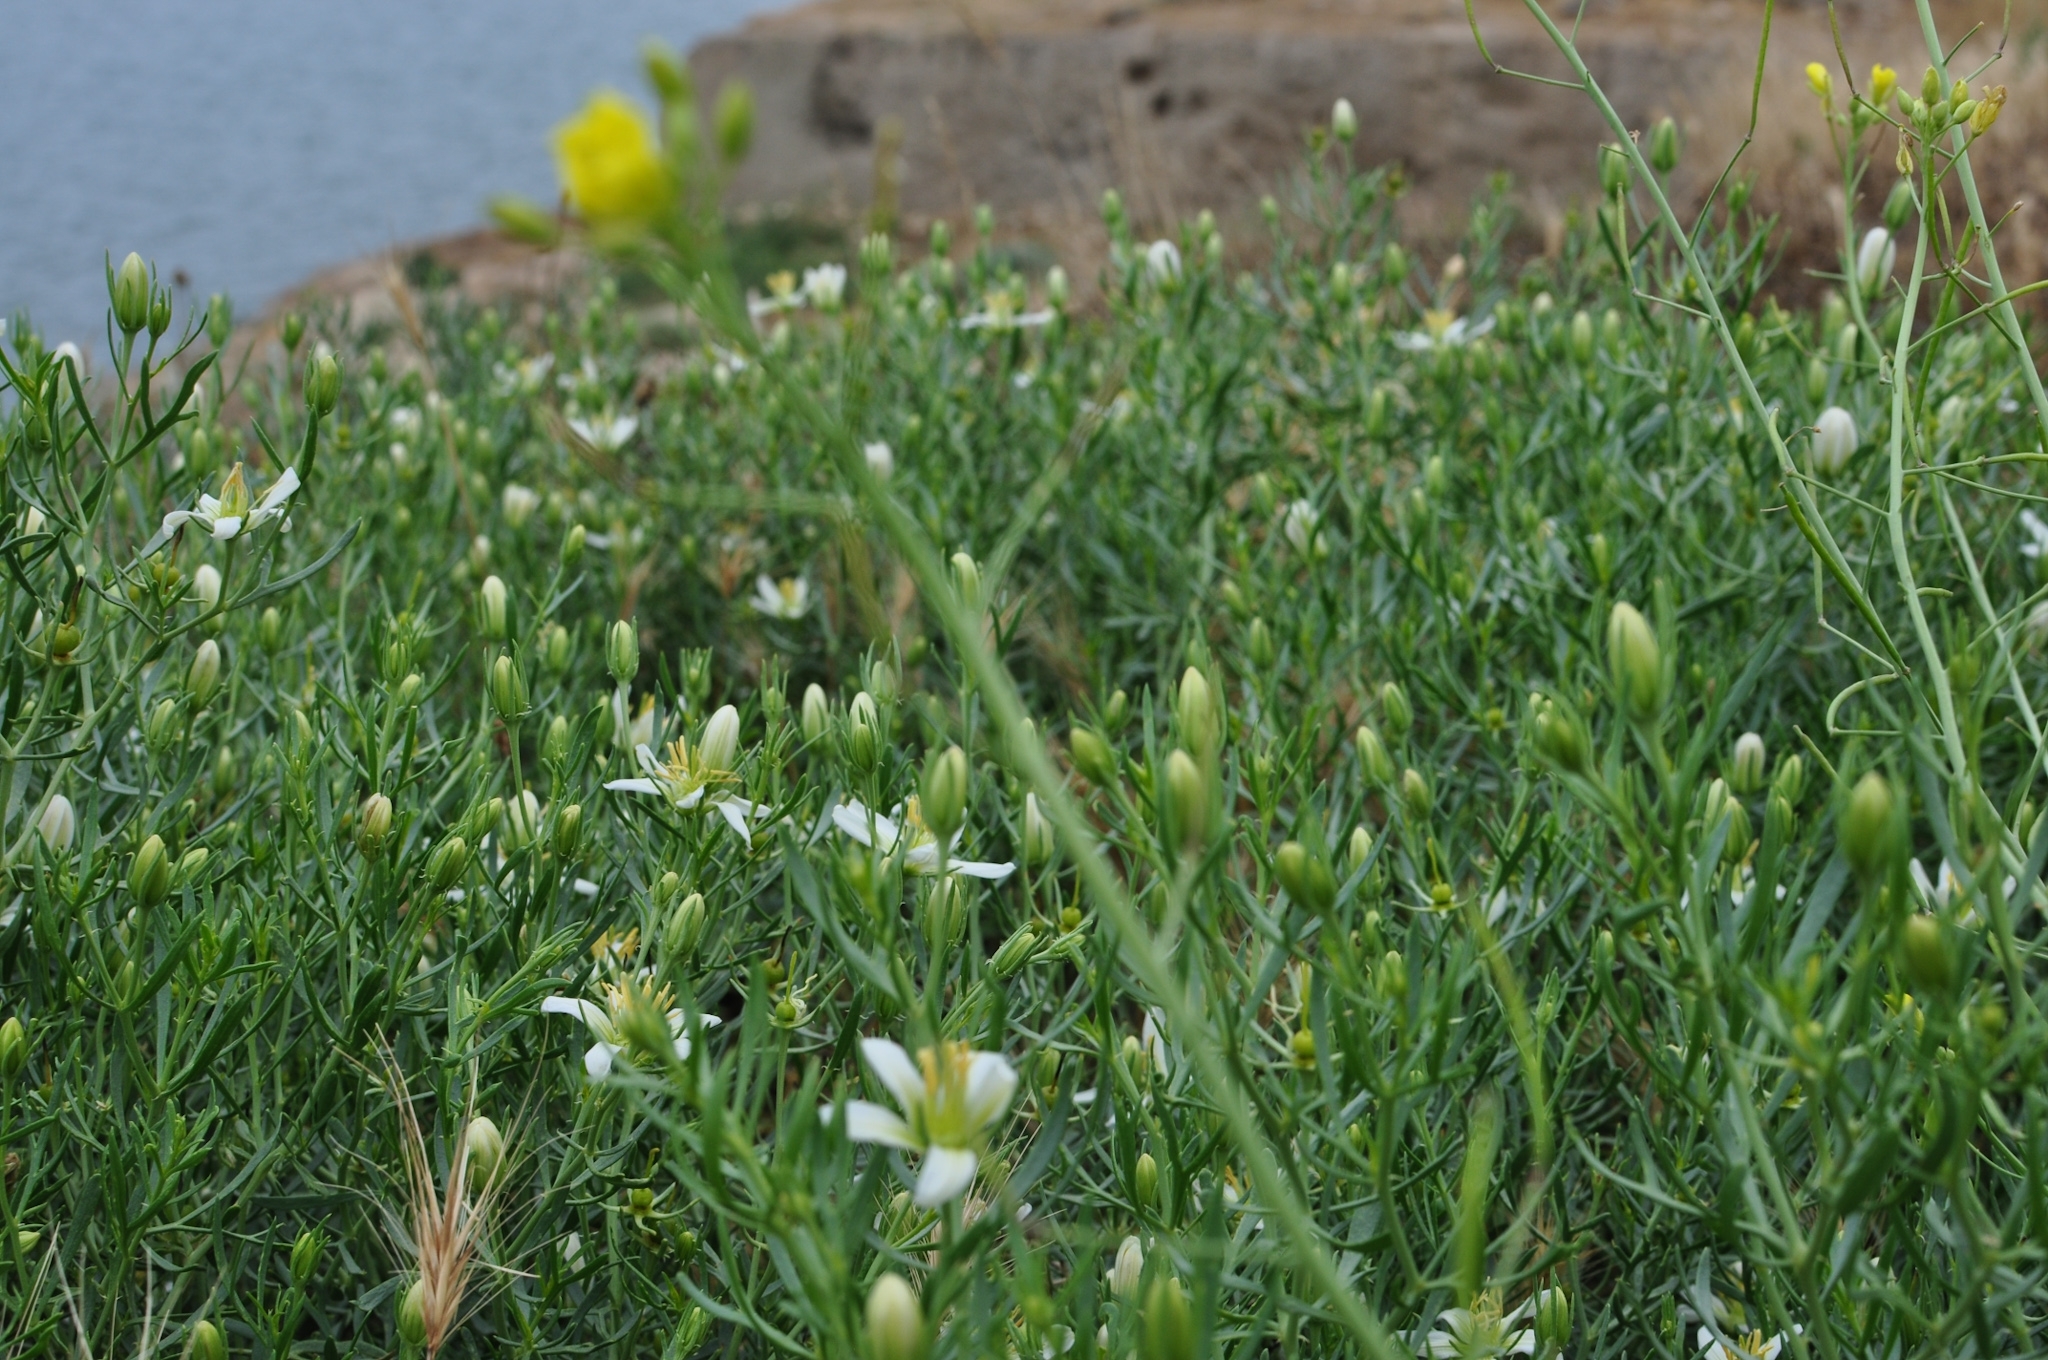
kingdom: Plantae
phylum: Tracheophyta
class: Magnoliopsida
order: Sapindales
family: Tetradiclidaceae
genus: Peganum
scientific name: Peganum harmala
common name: Harmal peganum
